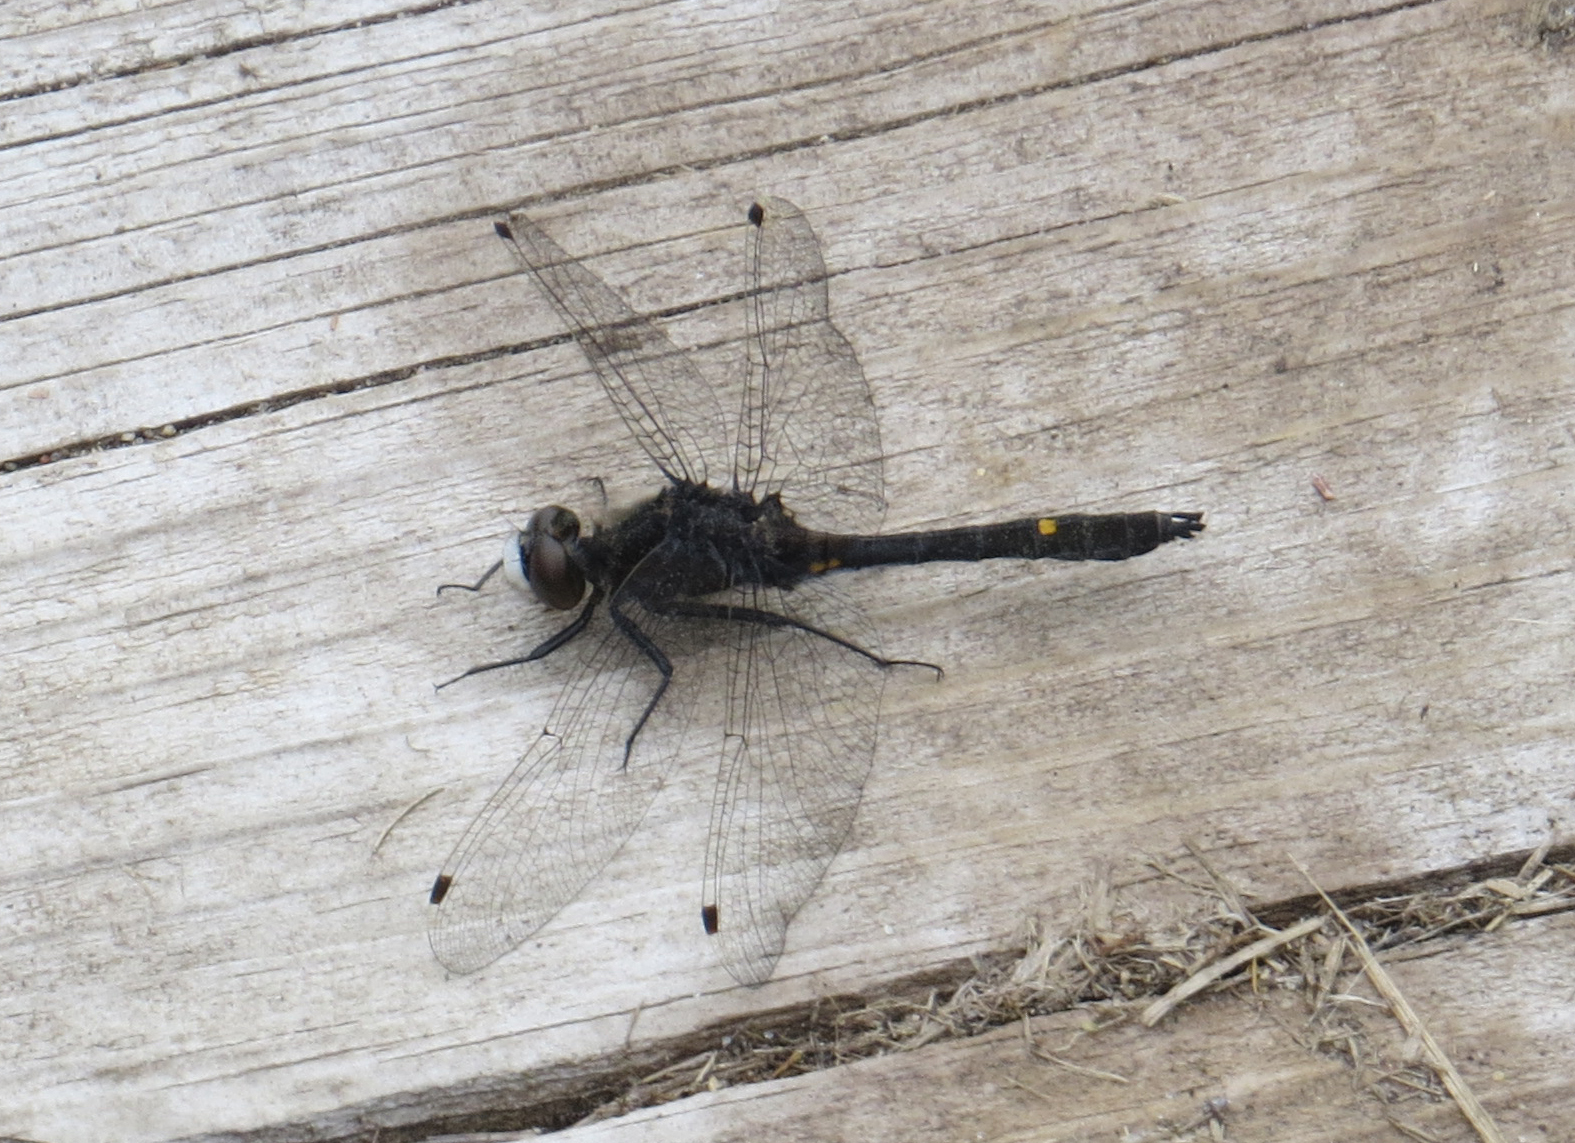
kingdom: Animalia
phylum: Arthropoda
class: Insecta
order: Odonata
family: Libellulidae
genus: Leucorrhinia
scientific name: Leucorrhinia intacta
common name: Dot-tailed whiteface
